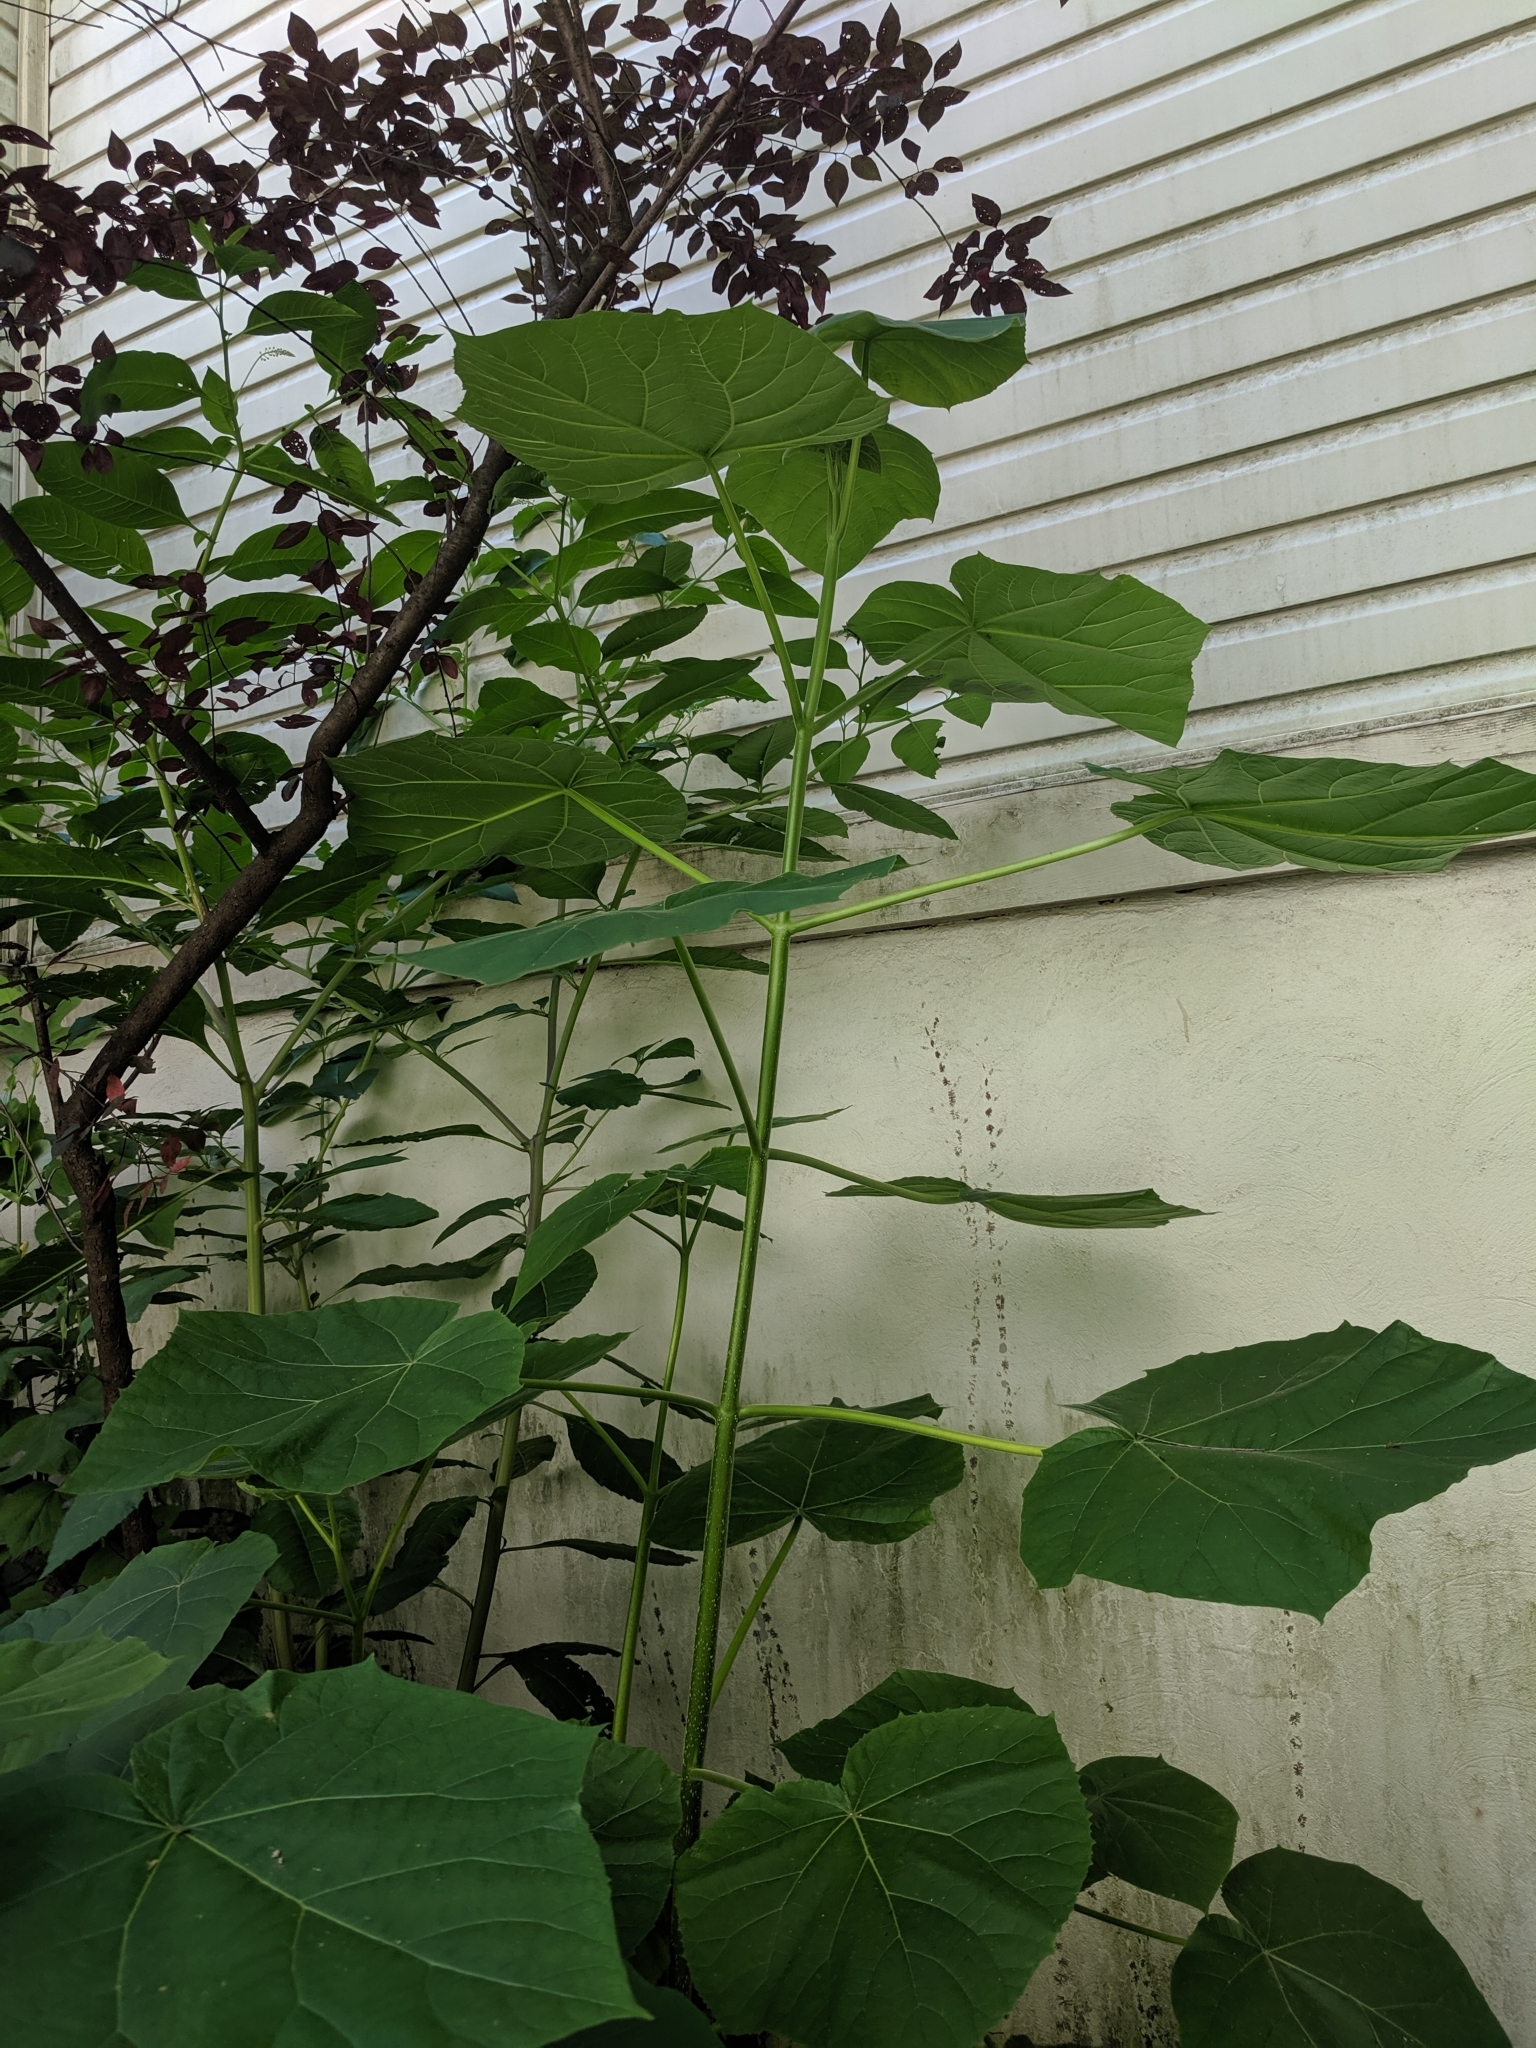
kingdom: Plantae
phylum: Tracheophyta
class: Magnoliopsida
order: Lamiales
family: Paulowniaceae
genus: Paulownia
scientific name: Paulownia tomentosa
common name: Foxglove-tree
